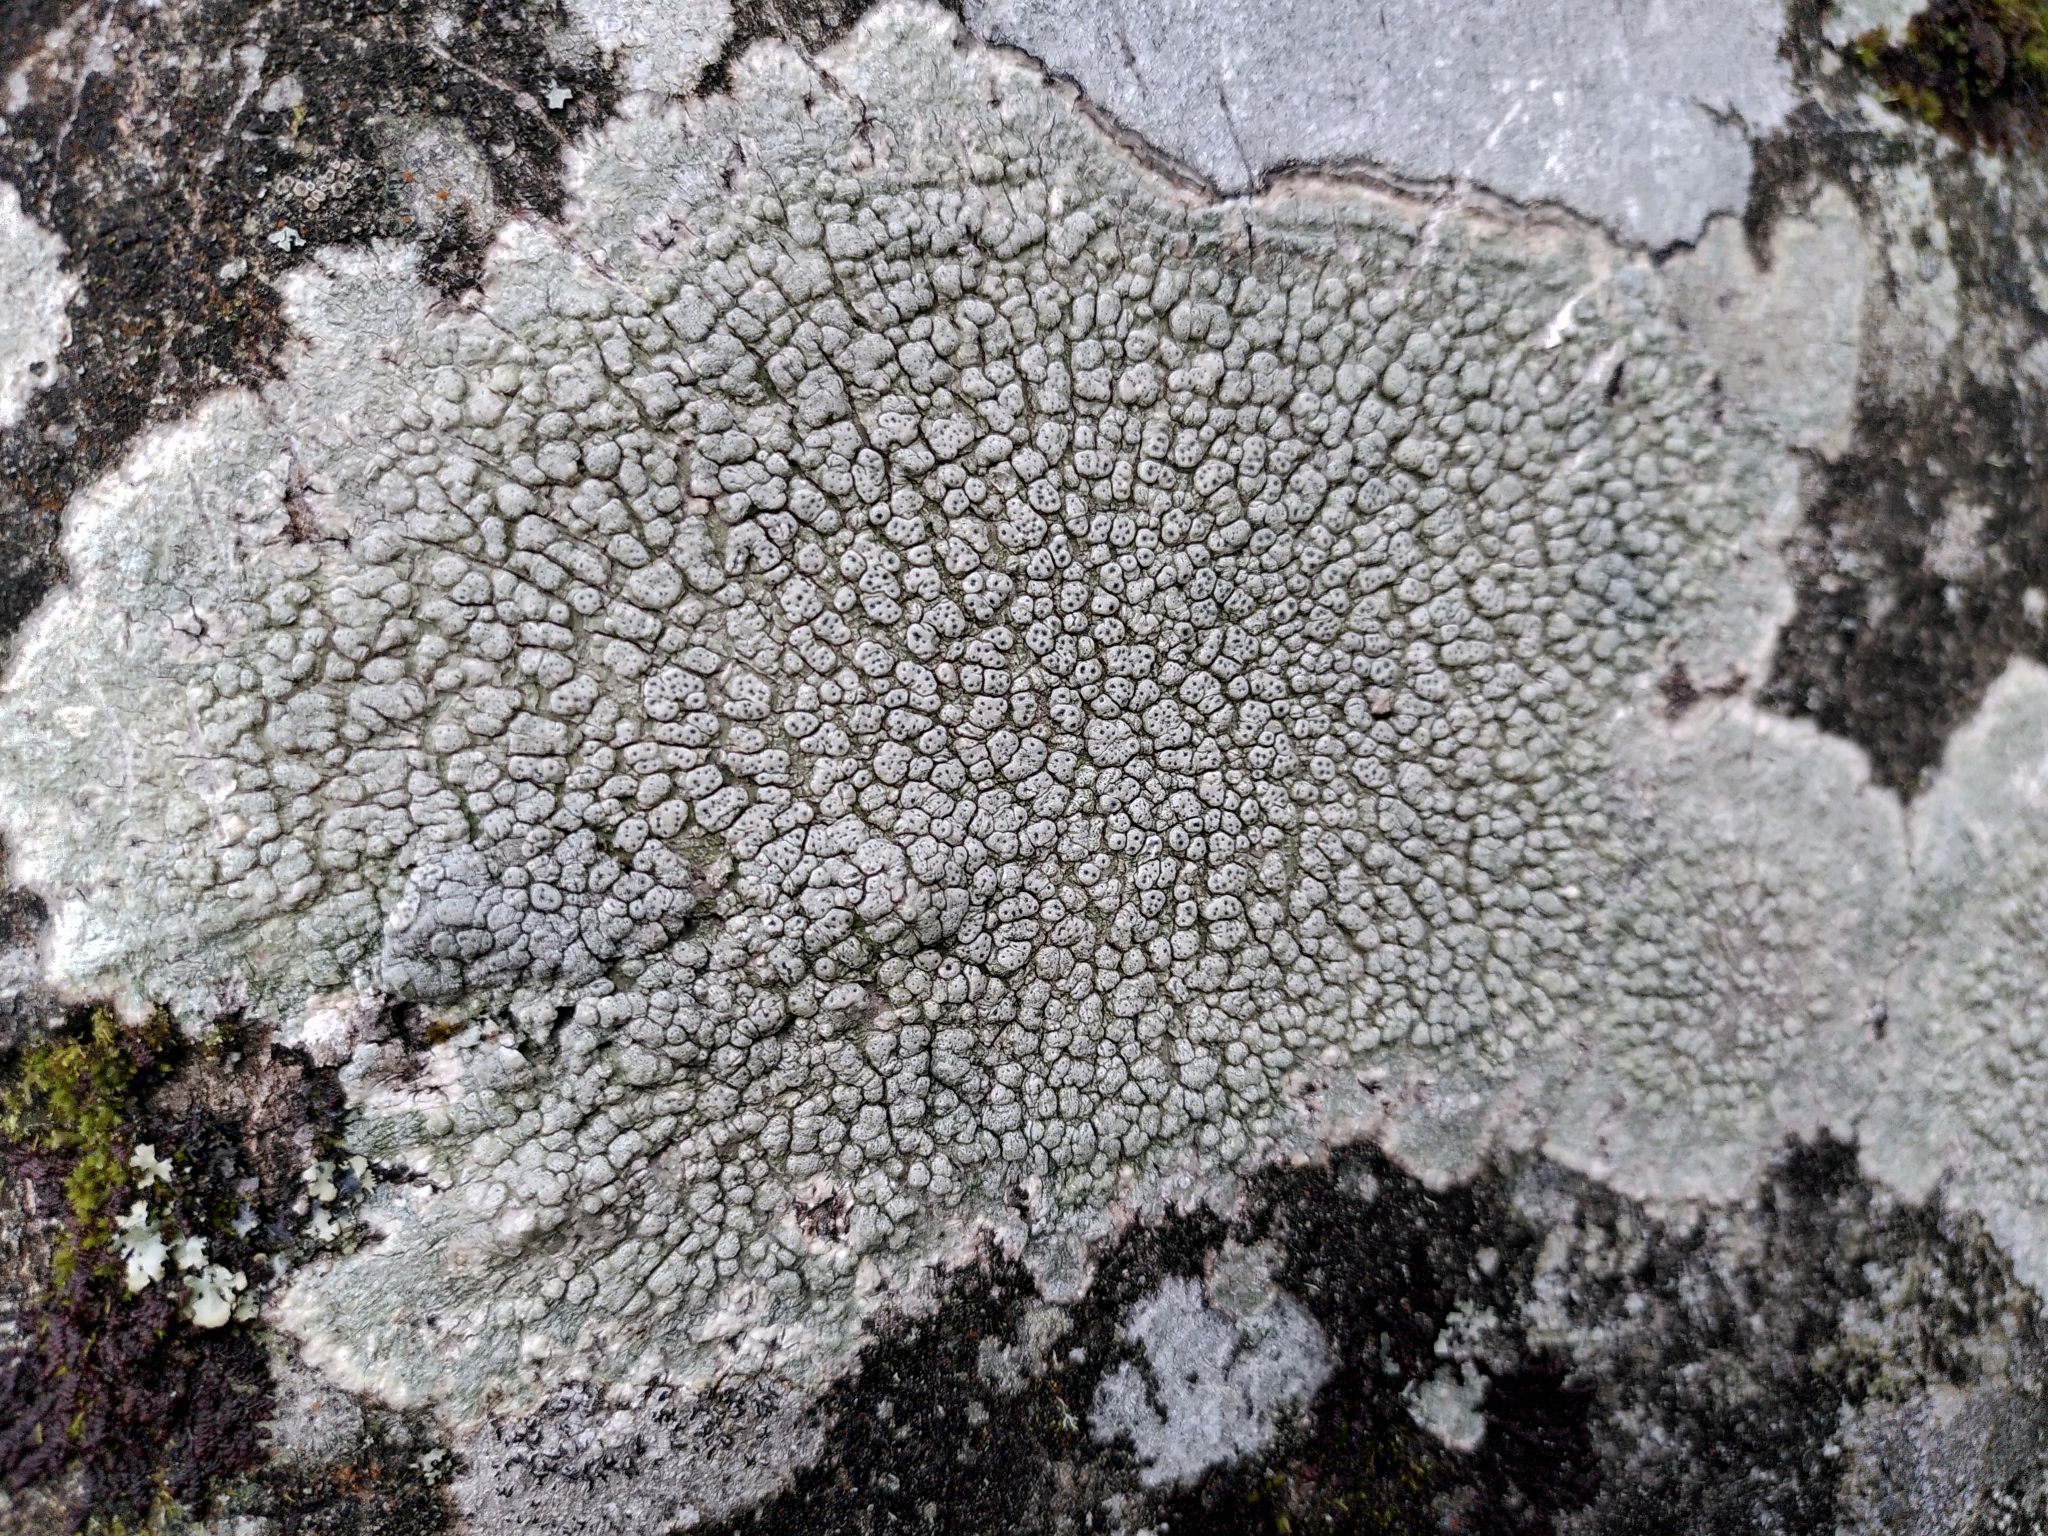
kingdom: Fungi
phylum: Ascomycota
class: Lecanoromycetes
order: Pertusariales
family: Pertusariaceae
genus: Pertusaria
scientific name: Pertusaria pertusa
